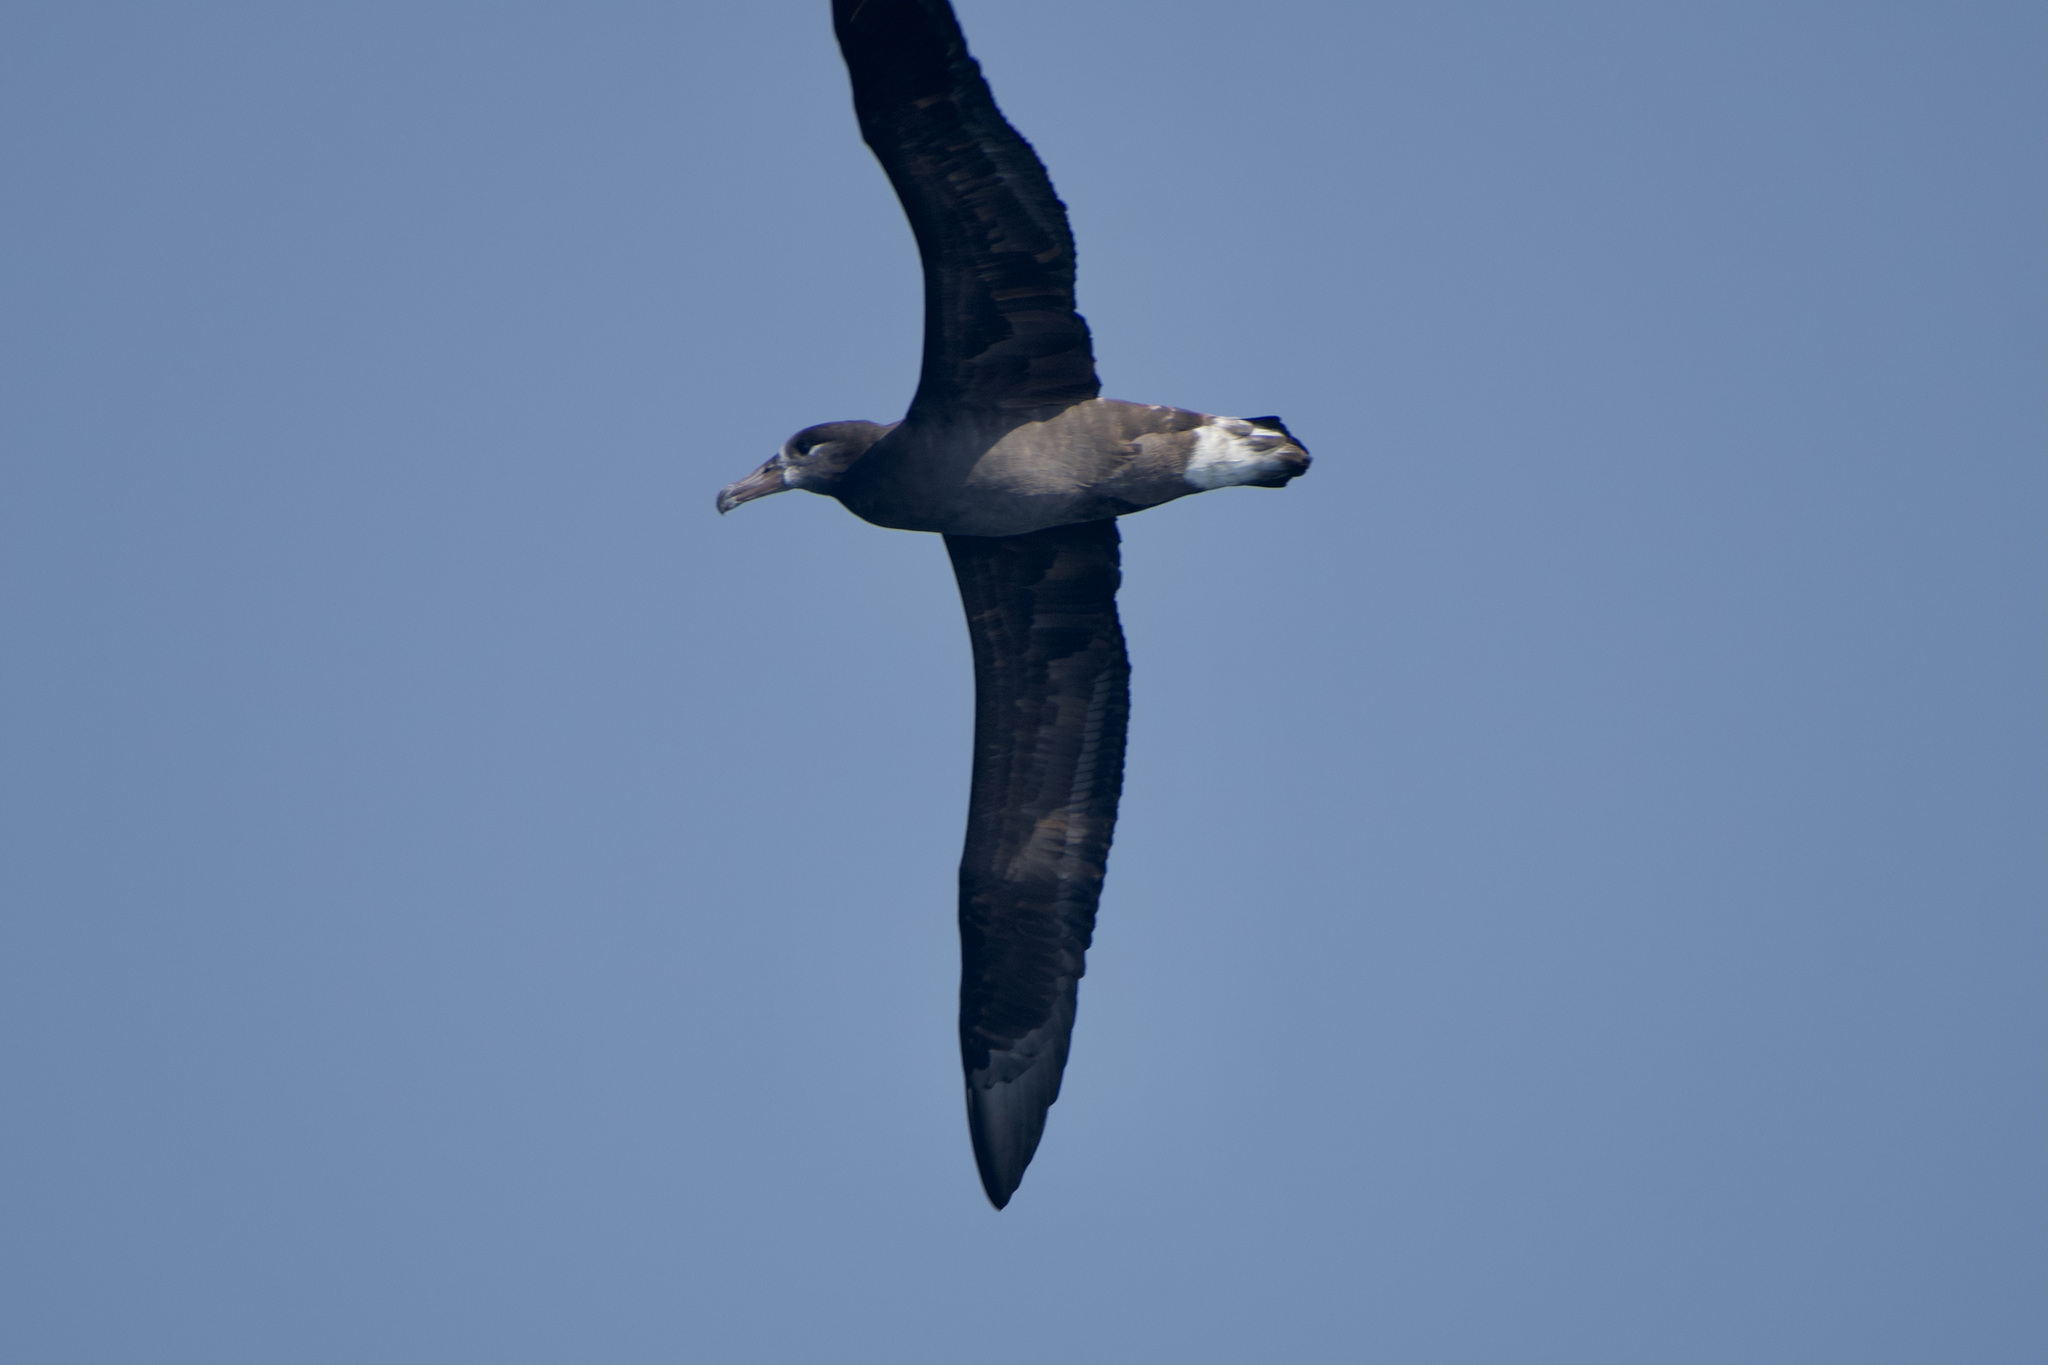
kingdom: Animalia
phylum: Chordata
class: Aves
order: Procellariiformes
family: Diomedeidae
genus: Phoebastria
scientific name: Phoebastria nigripes
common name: Black-footed albatross
